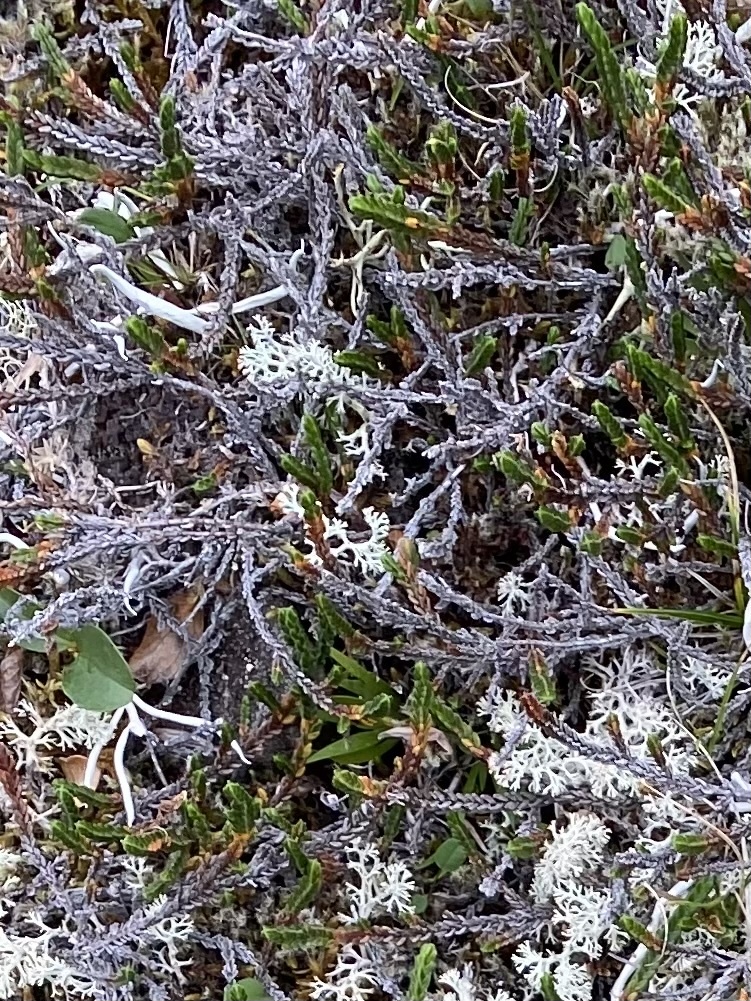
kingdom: Plantae
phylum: Tracheophyta
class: Magnoliopsida
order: Ericales
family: Ericaceae
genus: Cassiope
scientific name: Cassiope tetragona
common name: Arctic bell heather
